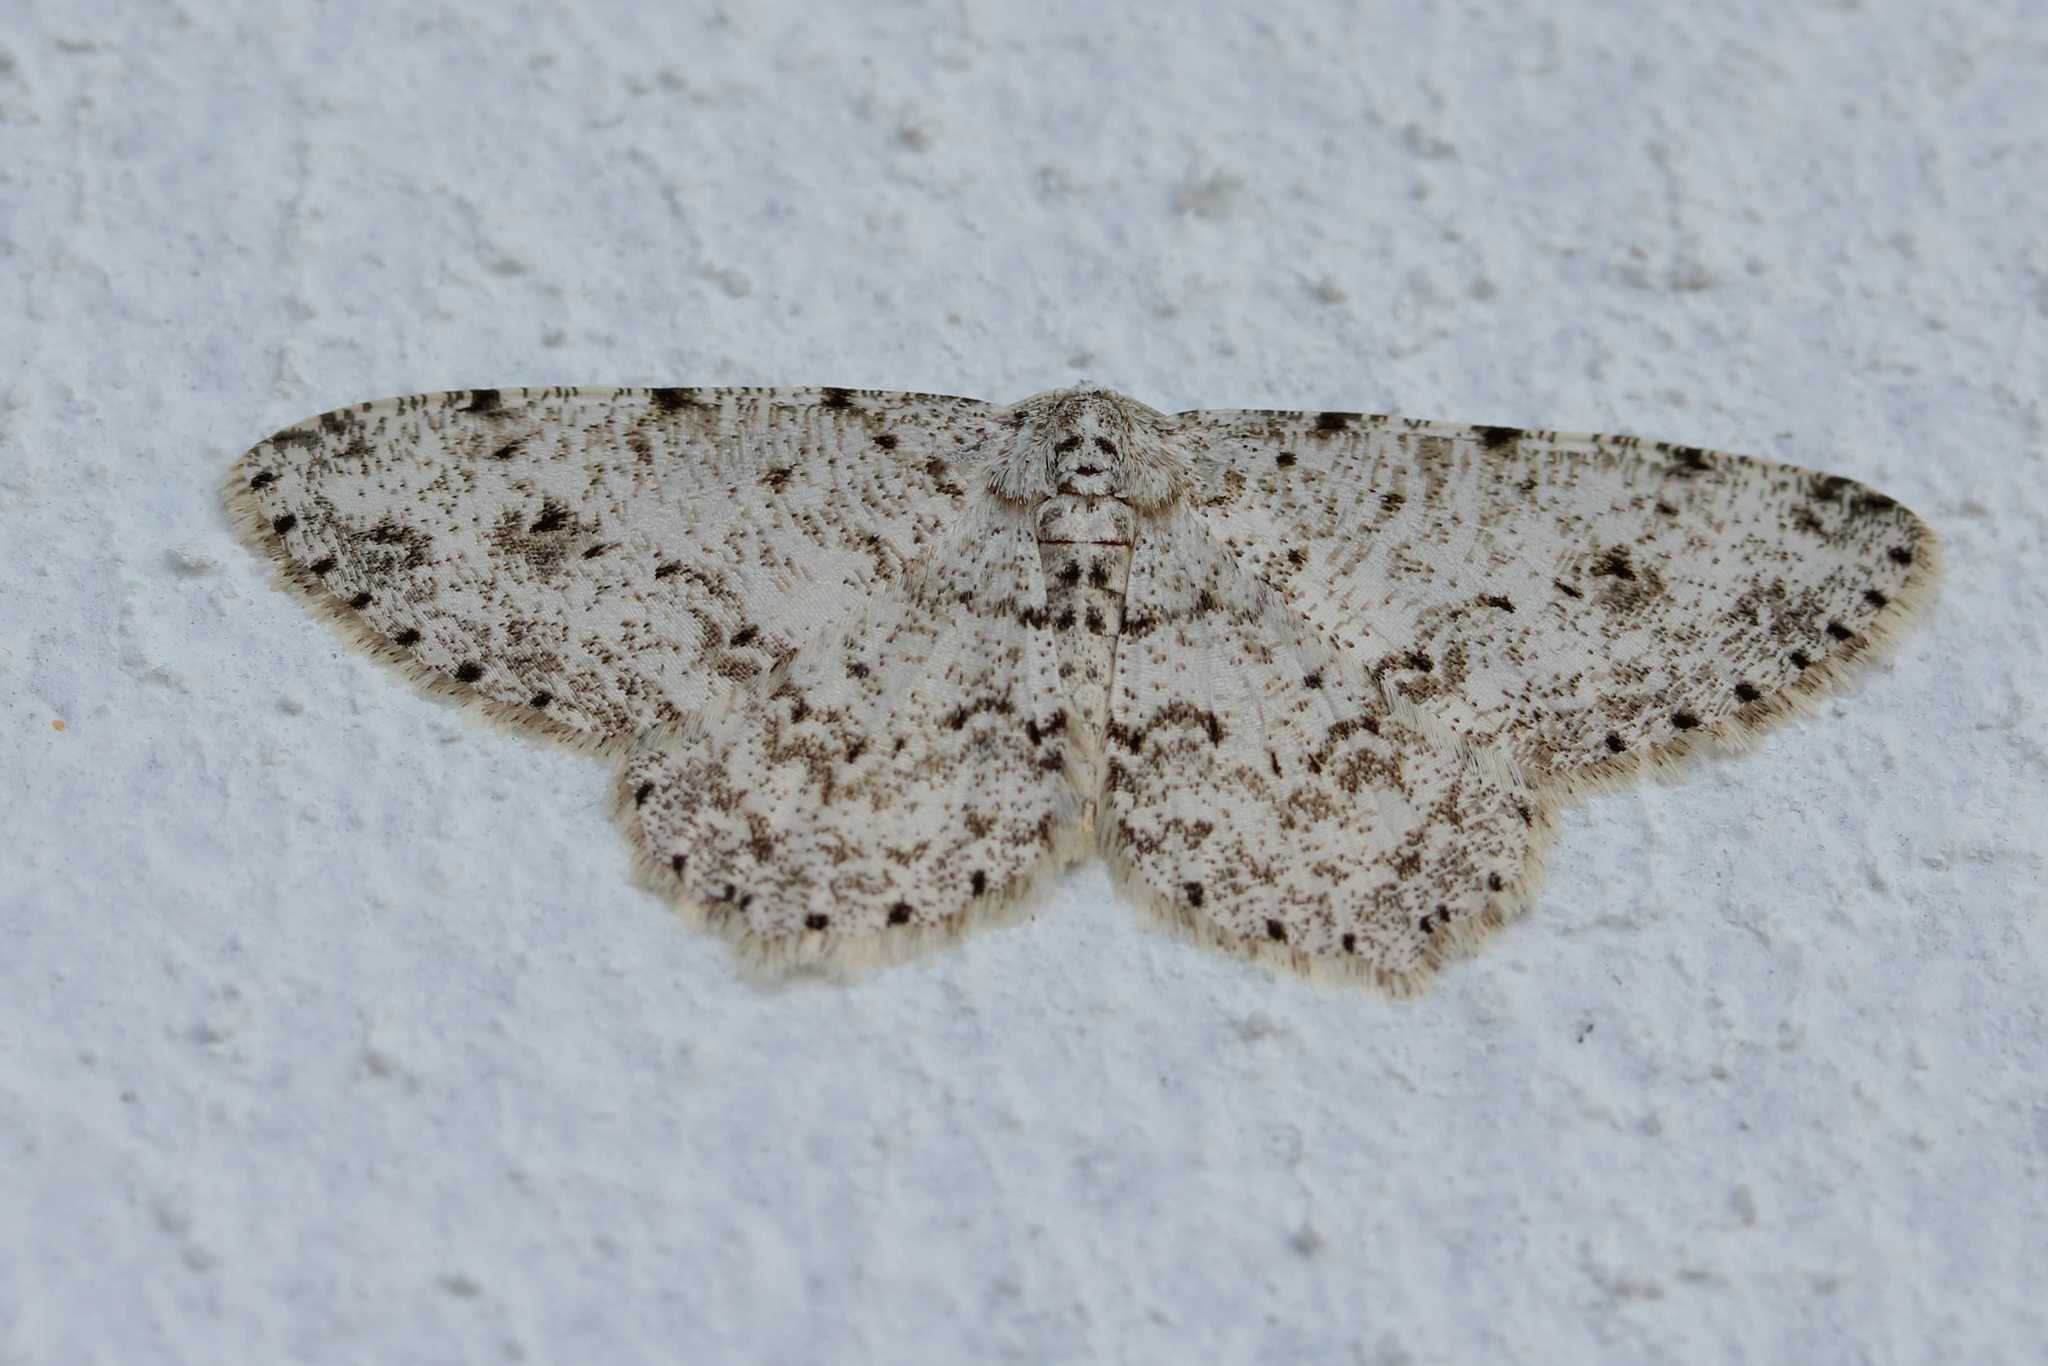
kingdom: Animalia
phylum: Arthropoda
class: Insecta
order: Lepidoptera
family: Geometridae
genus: Glena
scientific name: Glena grisearia
